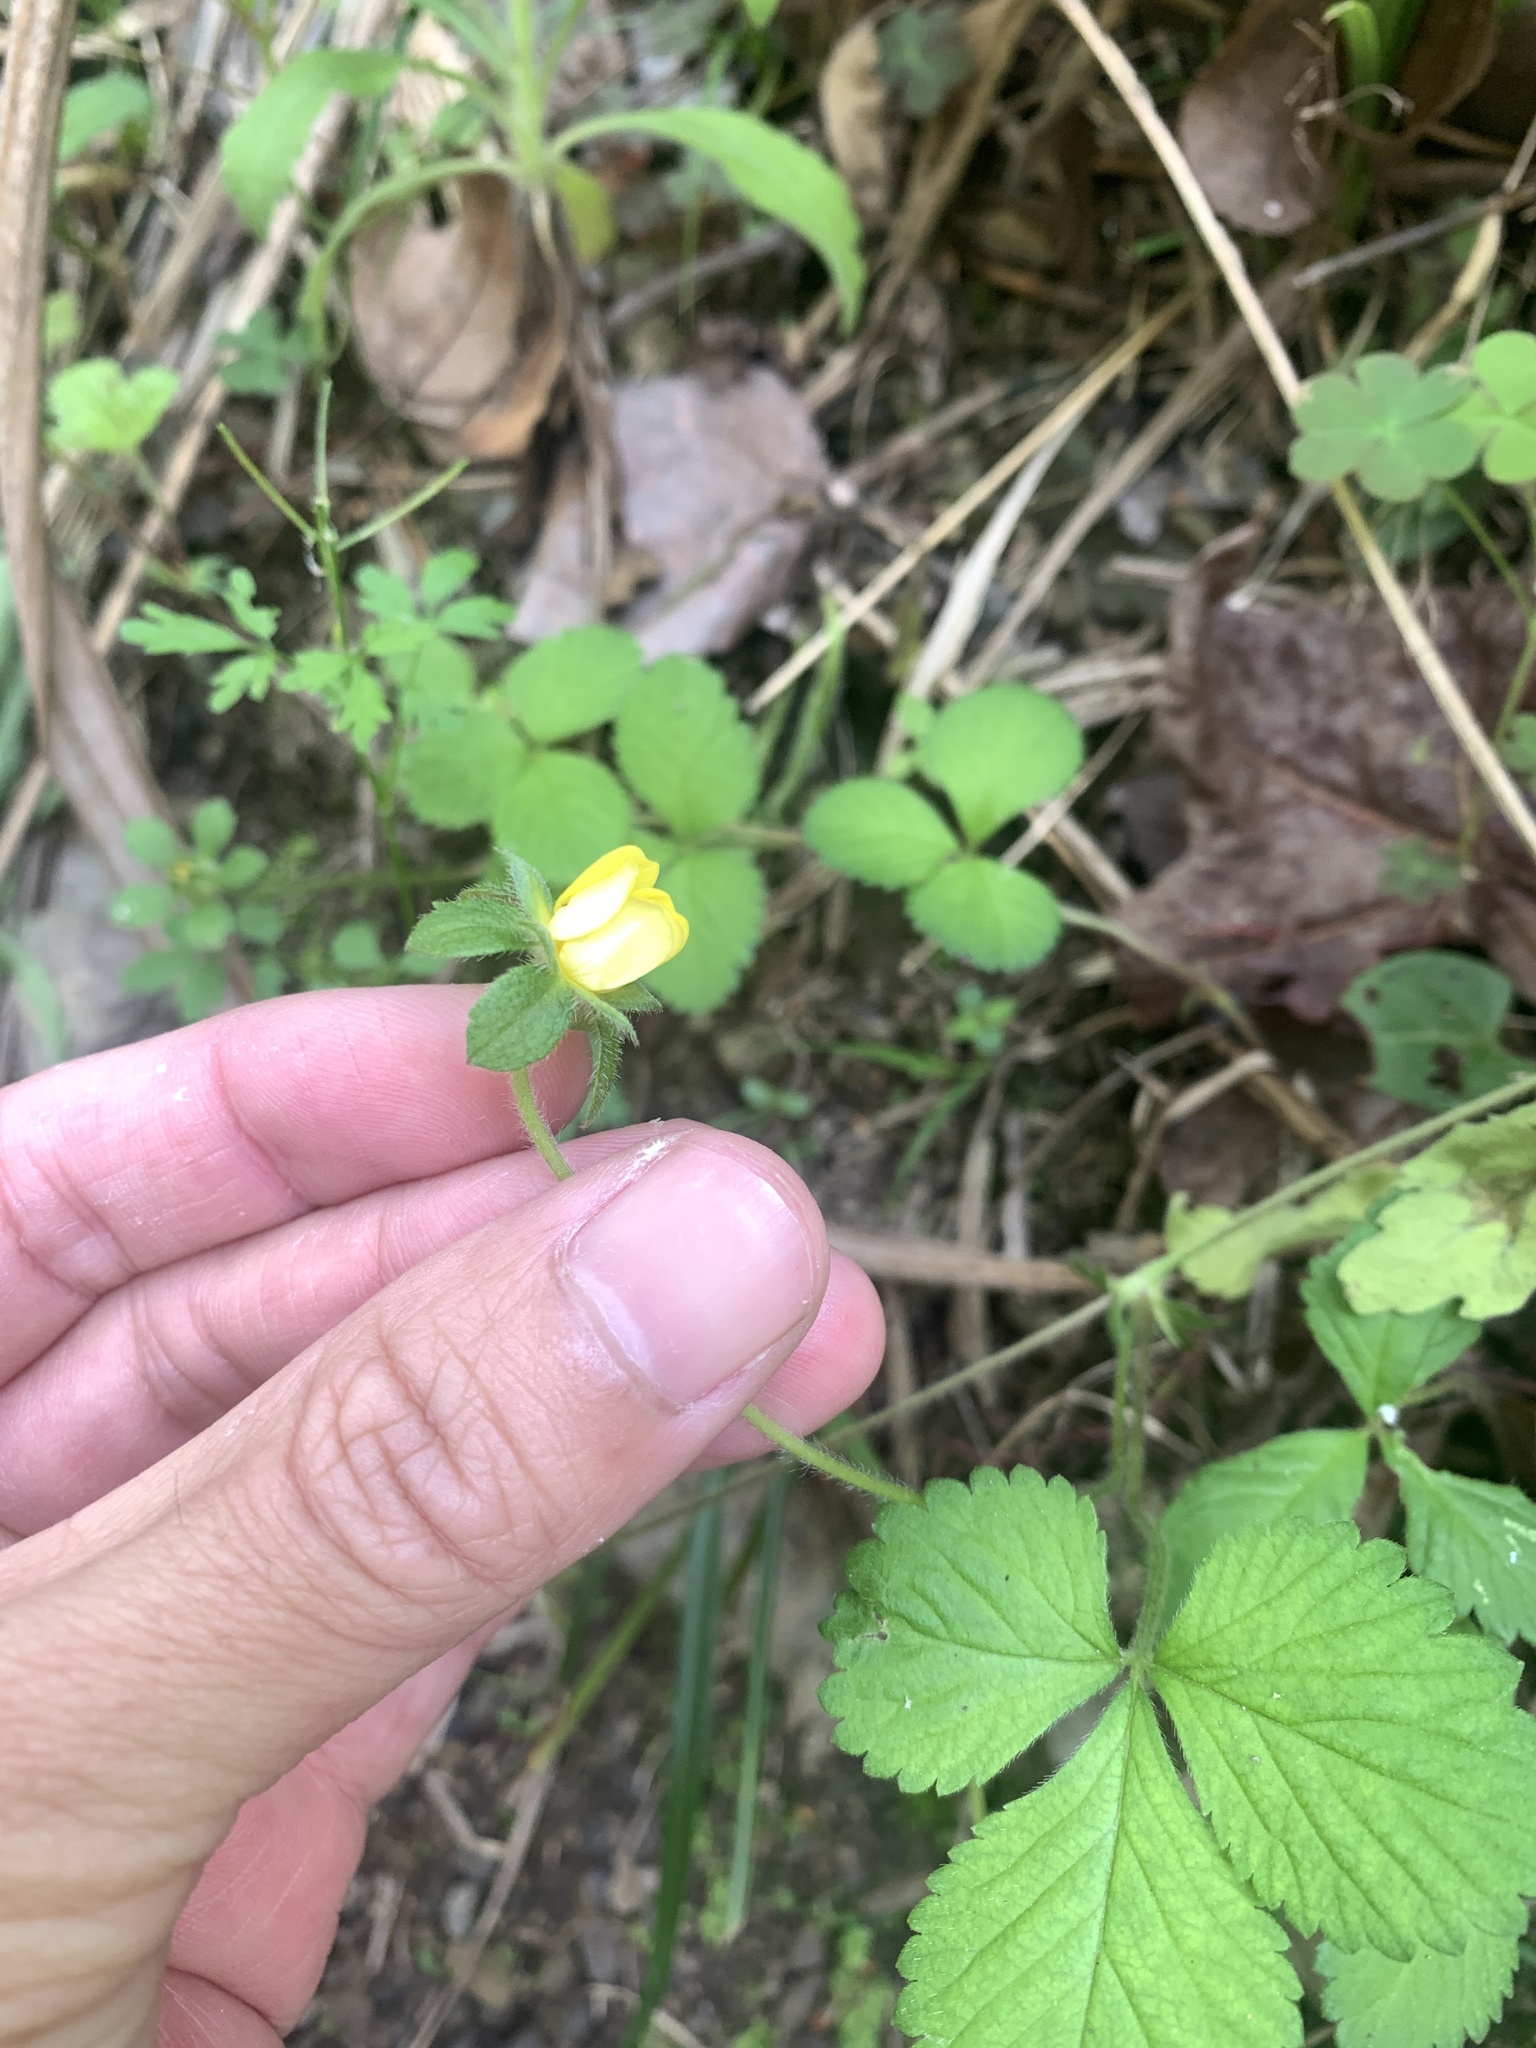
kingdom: Plantae
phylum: Tracheophyta
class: Magnoliopsida
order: Rosales
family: Rosaceae
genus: Potentilla
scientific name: Potentilla wallichiana
